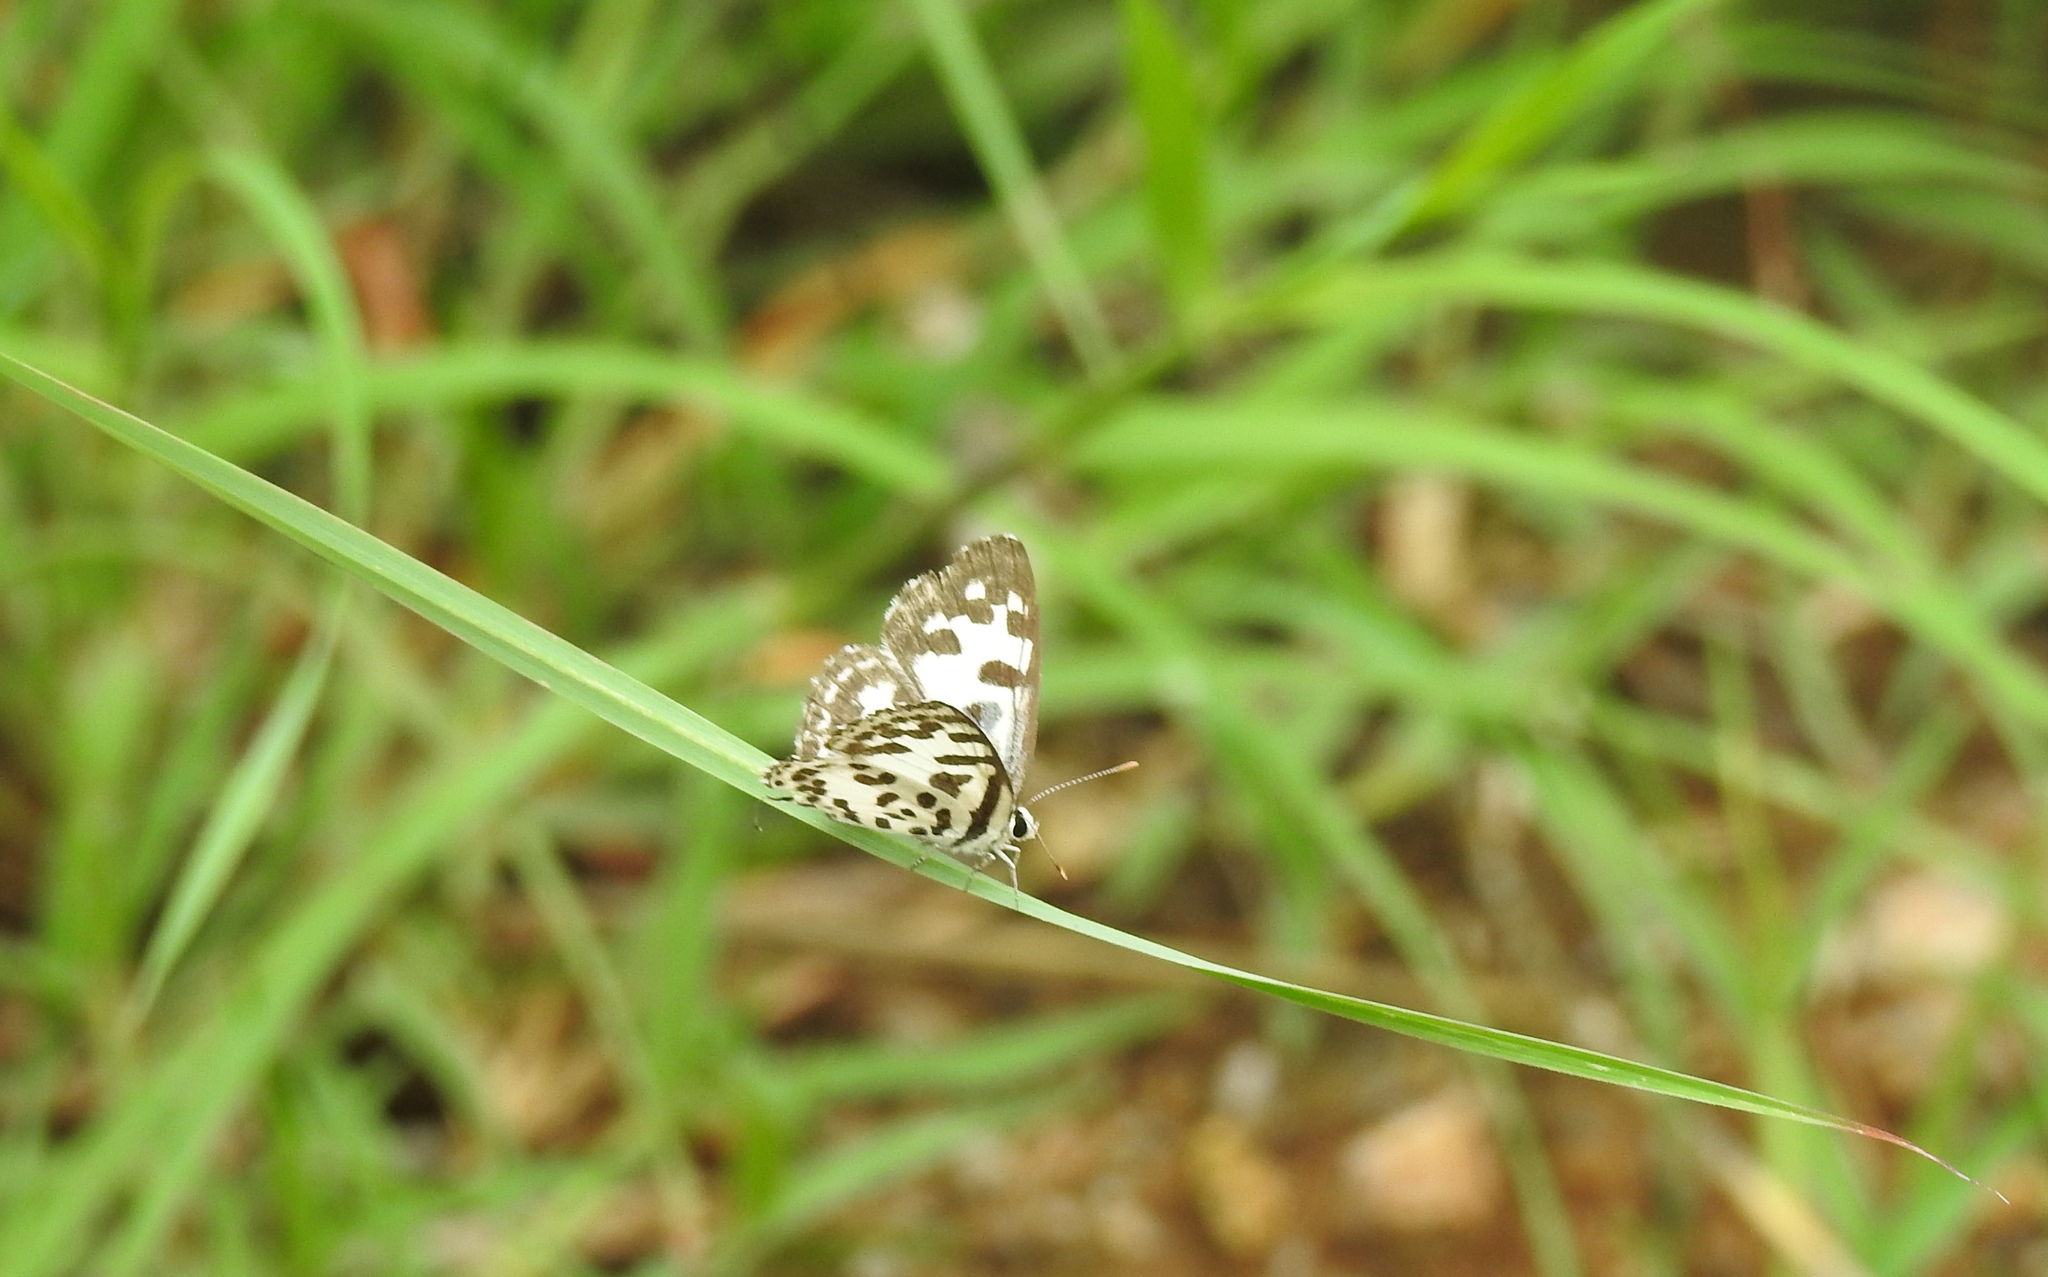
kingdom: Animalia
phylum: Arthropoda
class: Insecta
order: Lepidoptera
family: Lycaenidae
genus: Castalius
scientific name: Castalius rosimon
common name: Common pierrot
